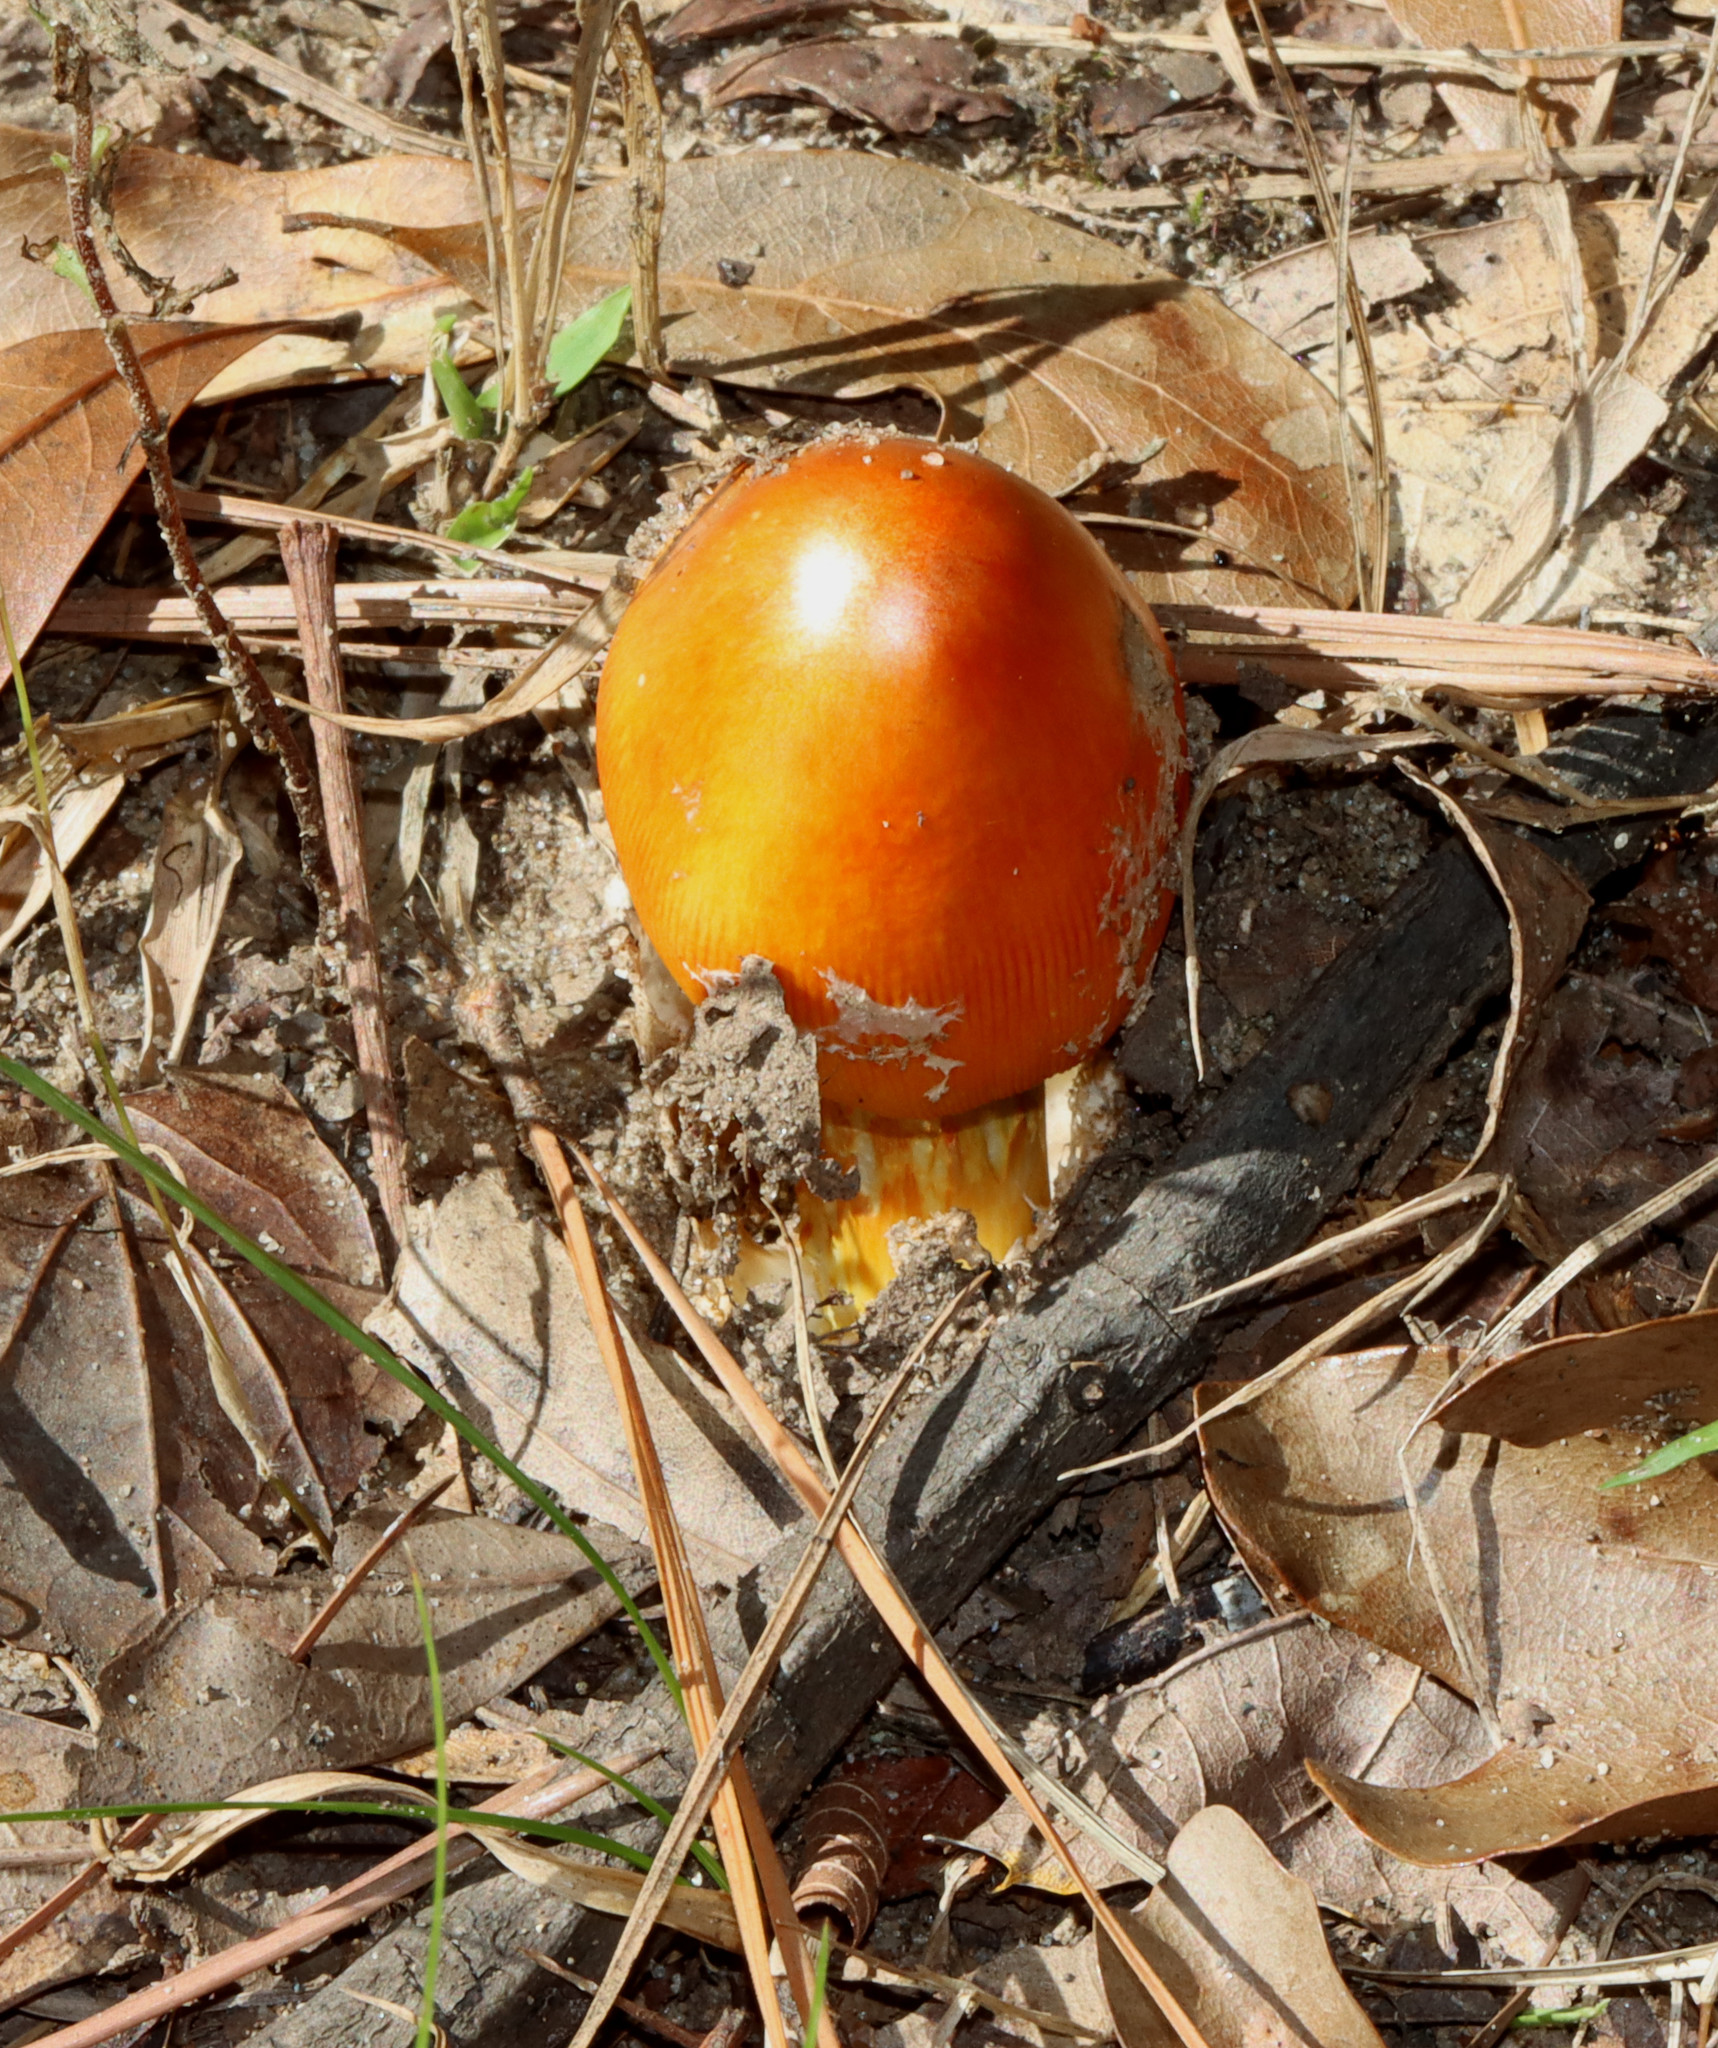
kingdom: Fungi
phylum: Basidiomycota
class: Agaricomycetes
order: Agaricales
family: Amanitaceae
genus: Amanita
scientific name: Amanita jacksonii
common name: Jackson's slender caesar
